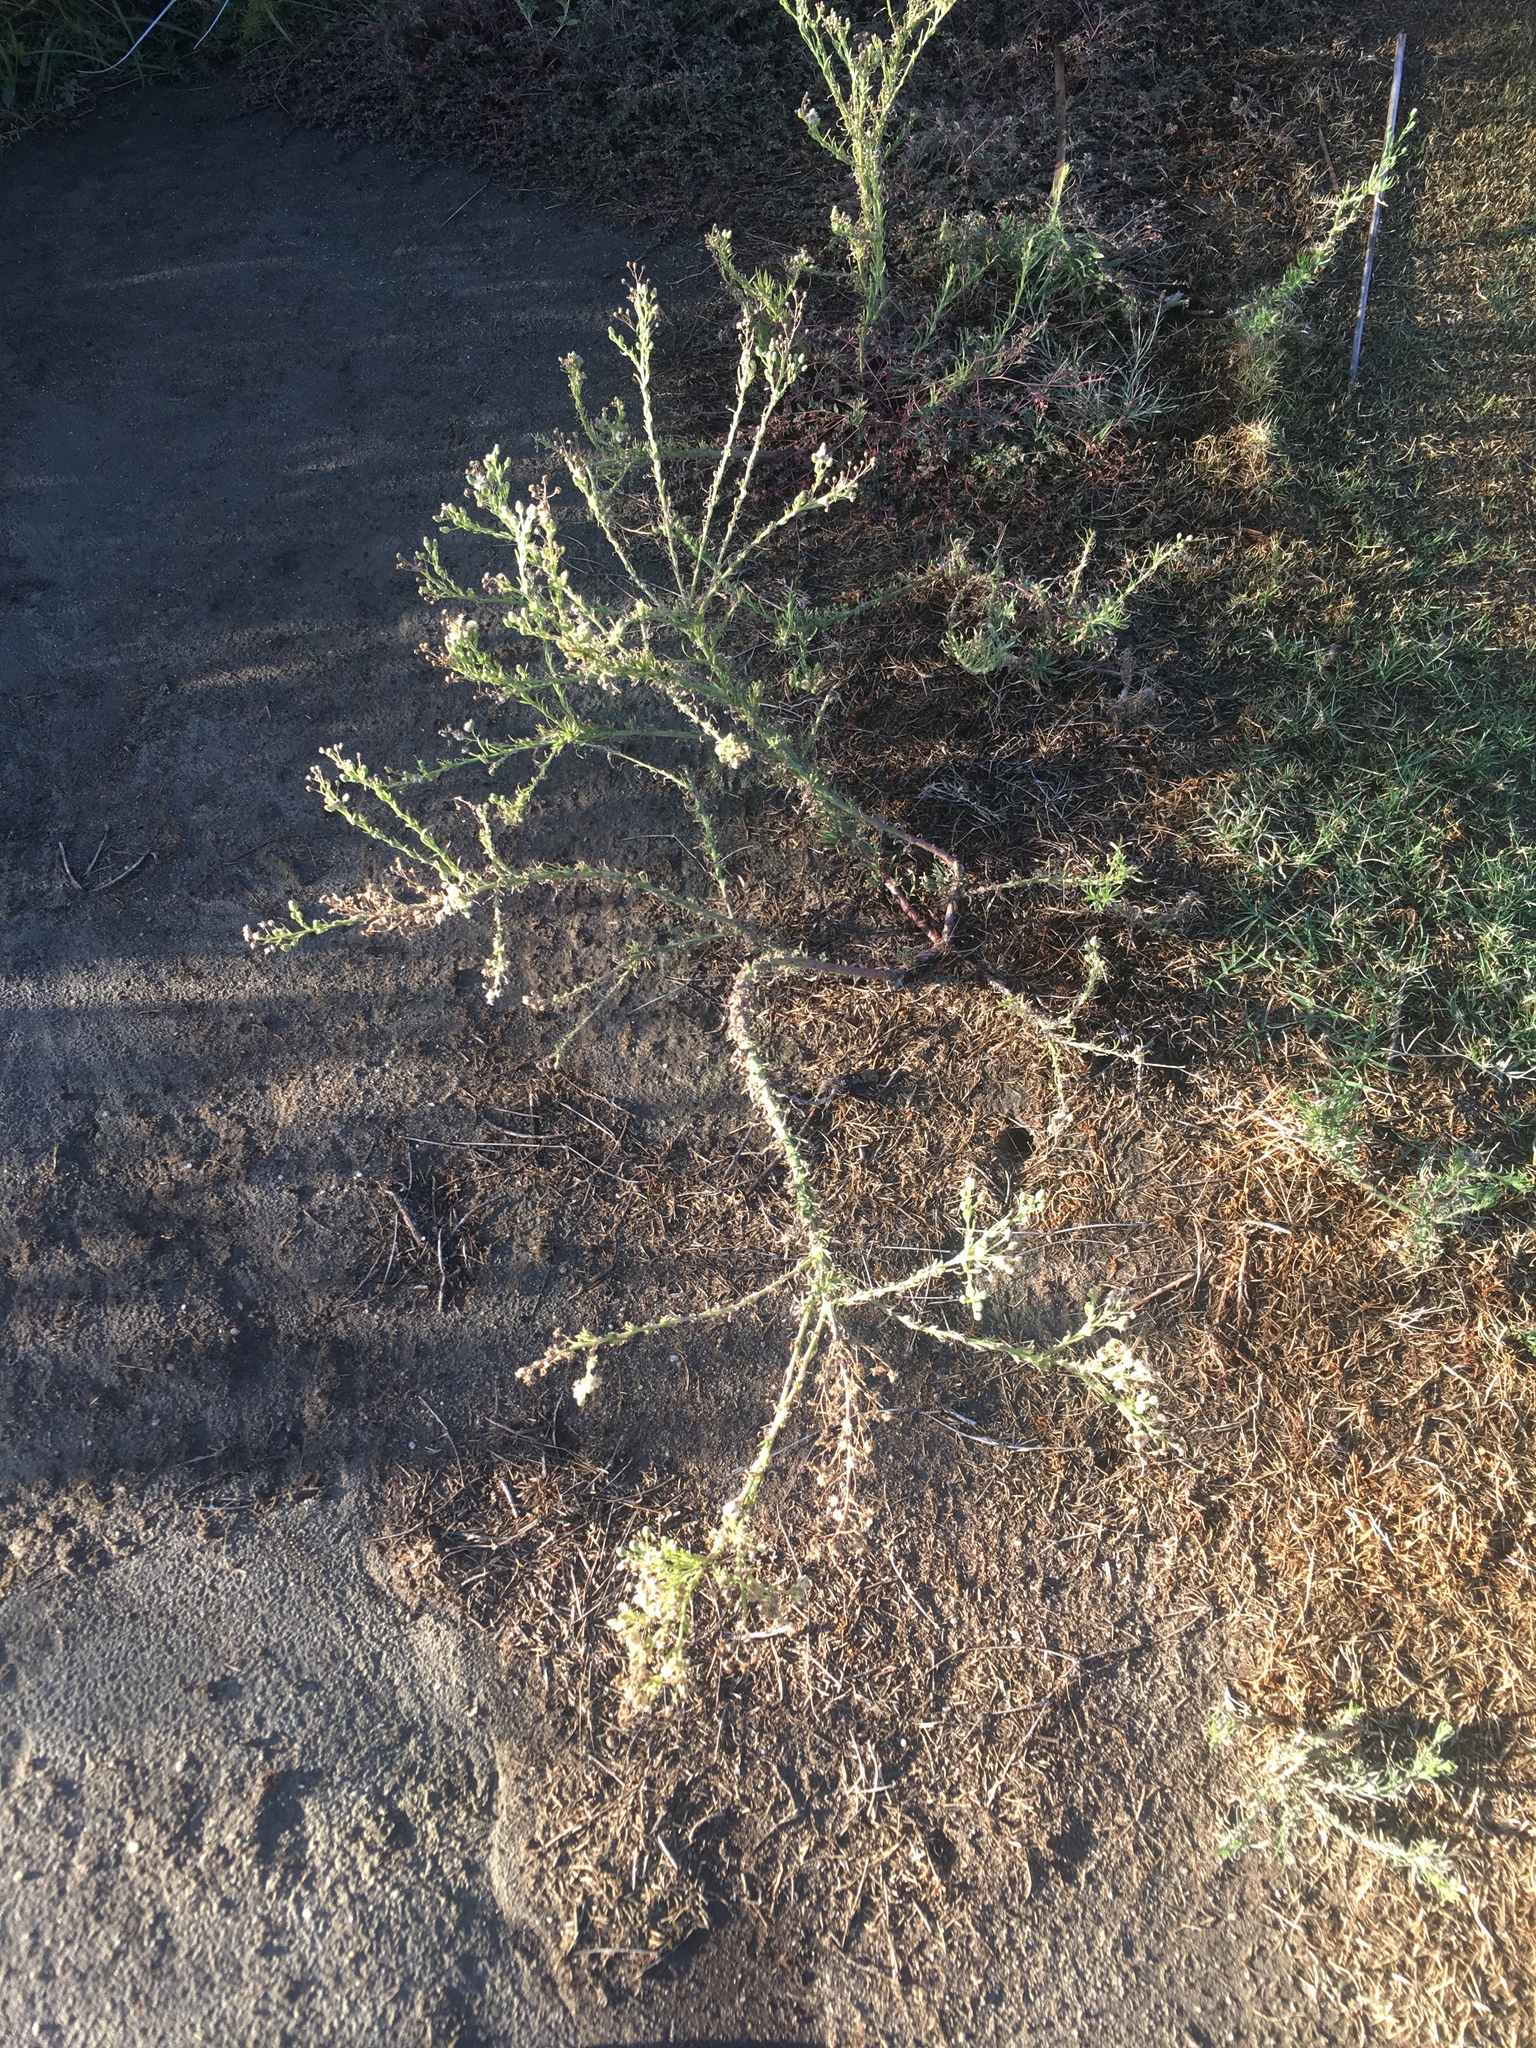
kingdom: Plantae
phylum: Tracheophyta
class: Magnoliopsida
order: Asterales
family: Asteraceae
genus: Erigeron
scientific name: Erigeron bonariensis
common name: Argentine fleabane
